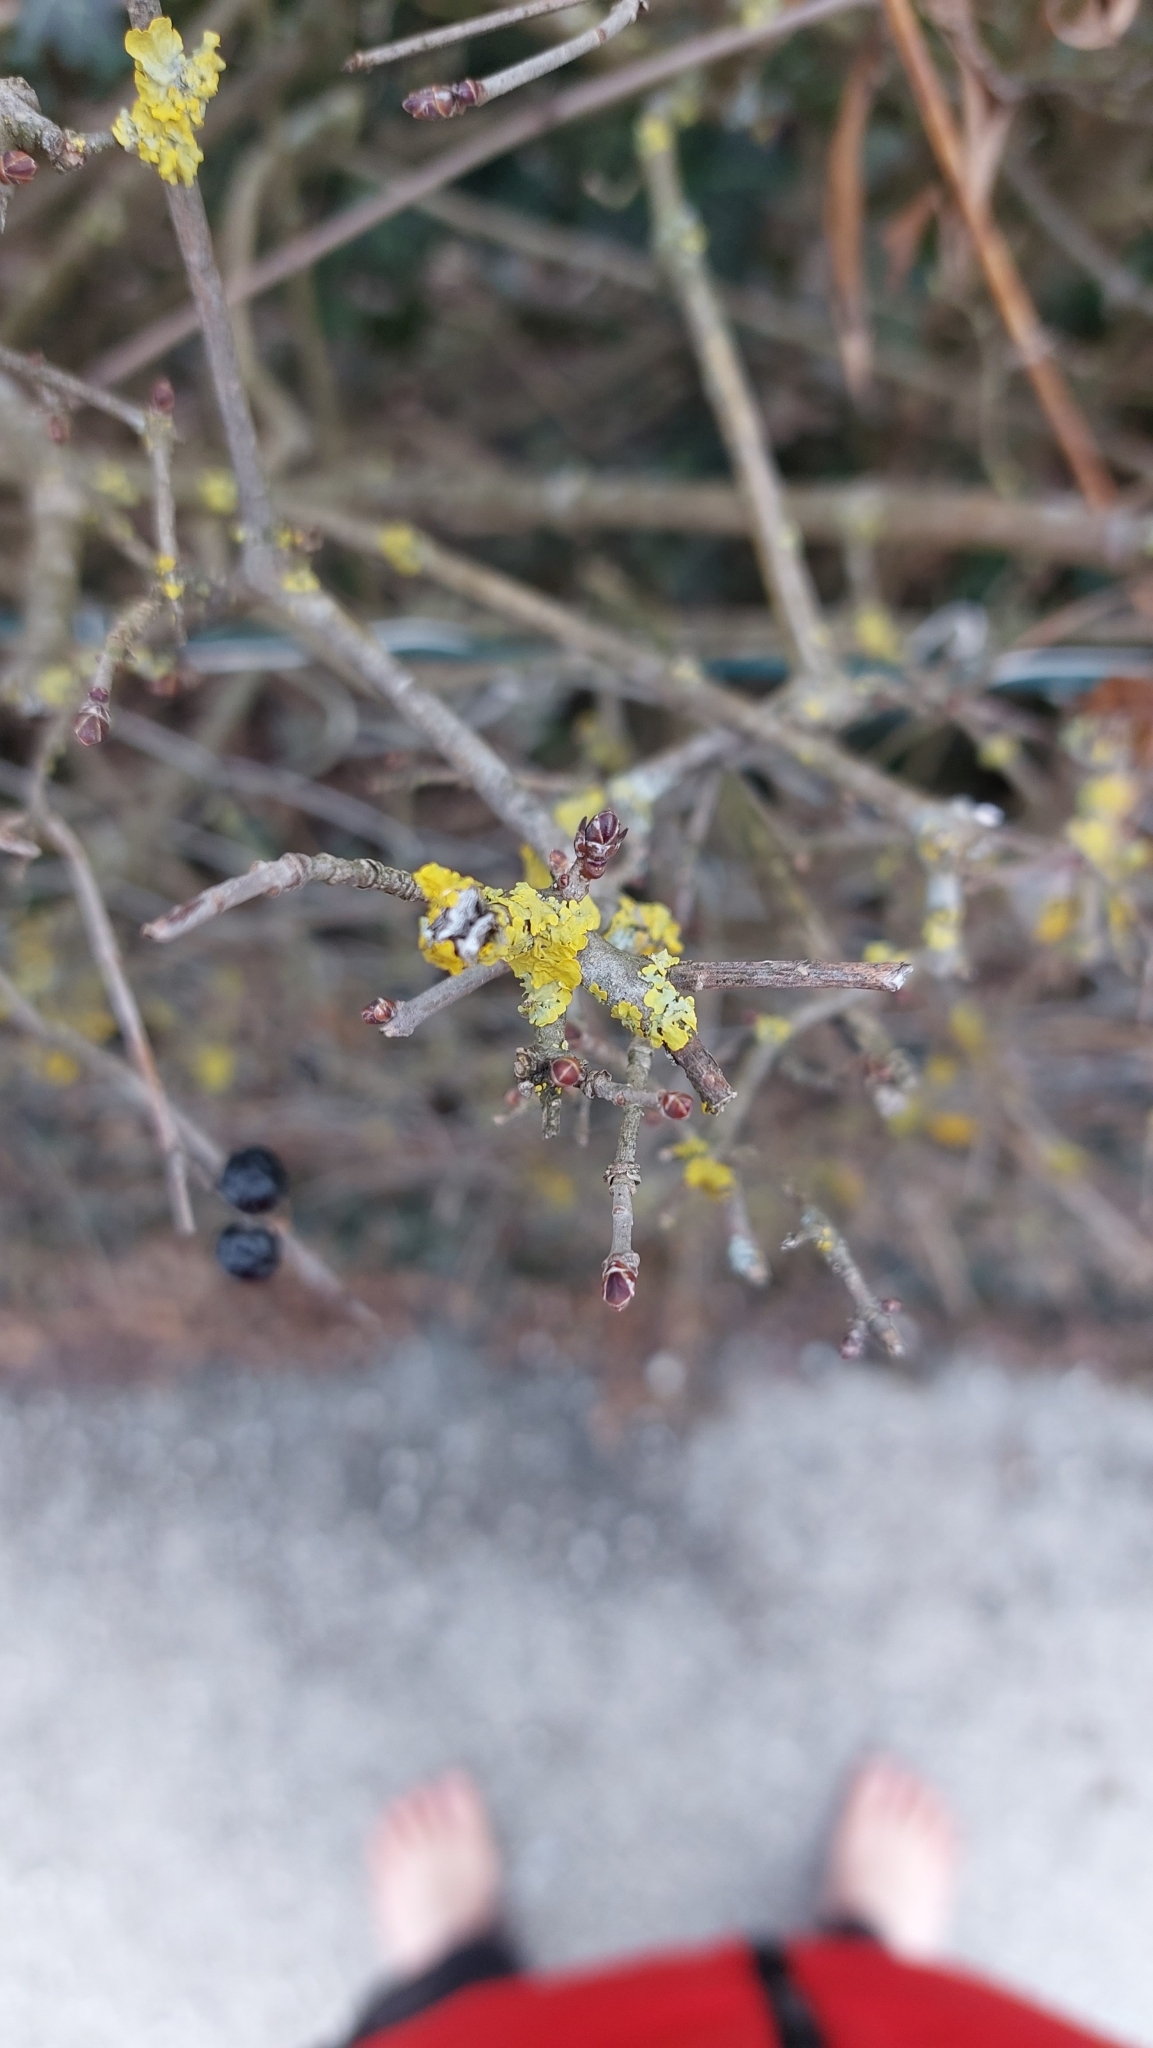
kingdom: Fungi
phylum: Ascomycota
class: Lecanoromycetes
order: Teloschistales
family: Teloschistaceae
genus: Xanthoria
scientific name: Xanthoria parietina
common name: Common orange lichen
